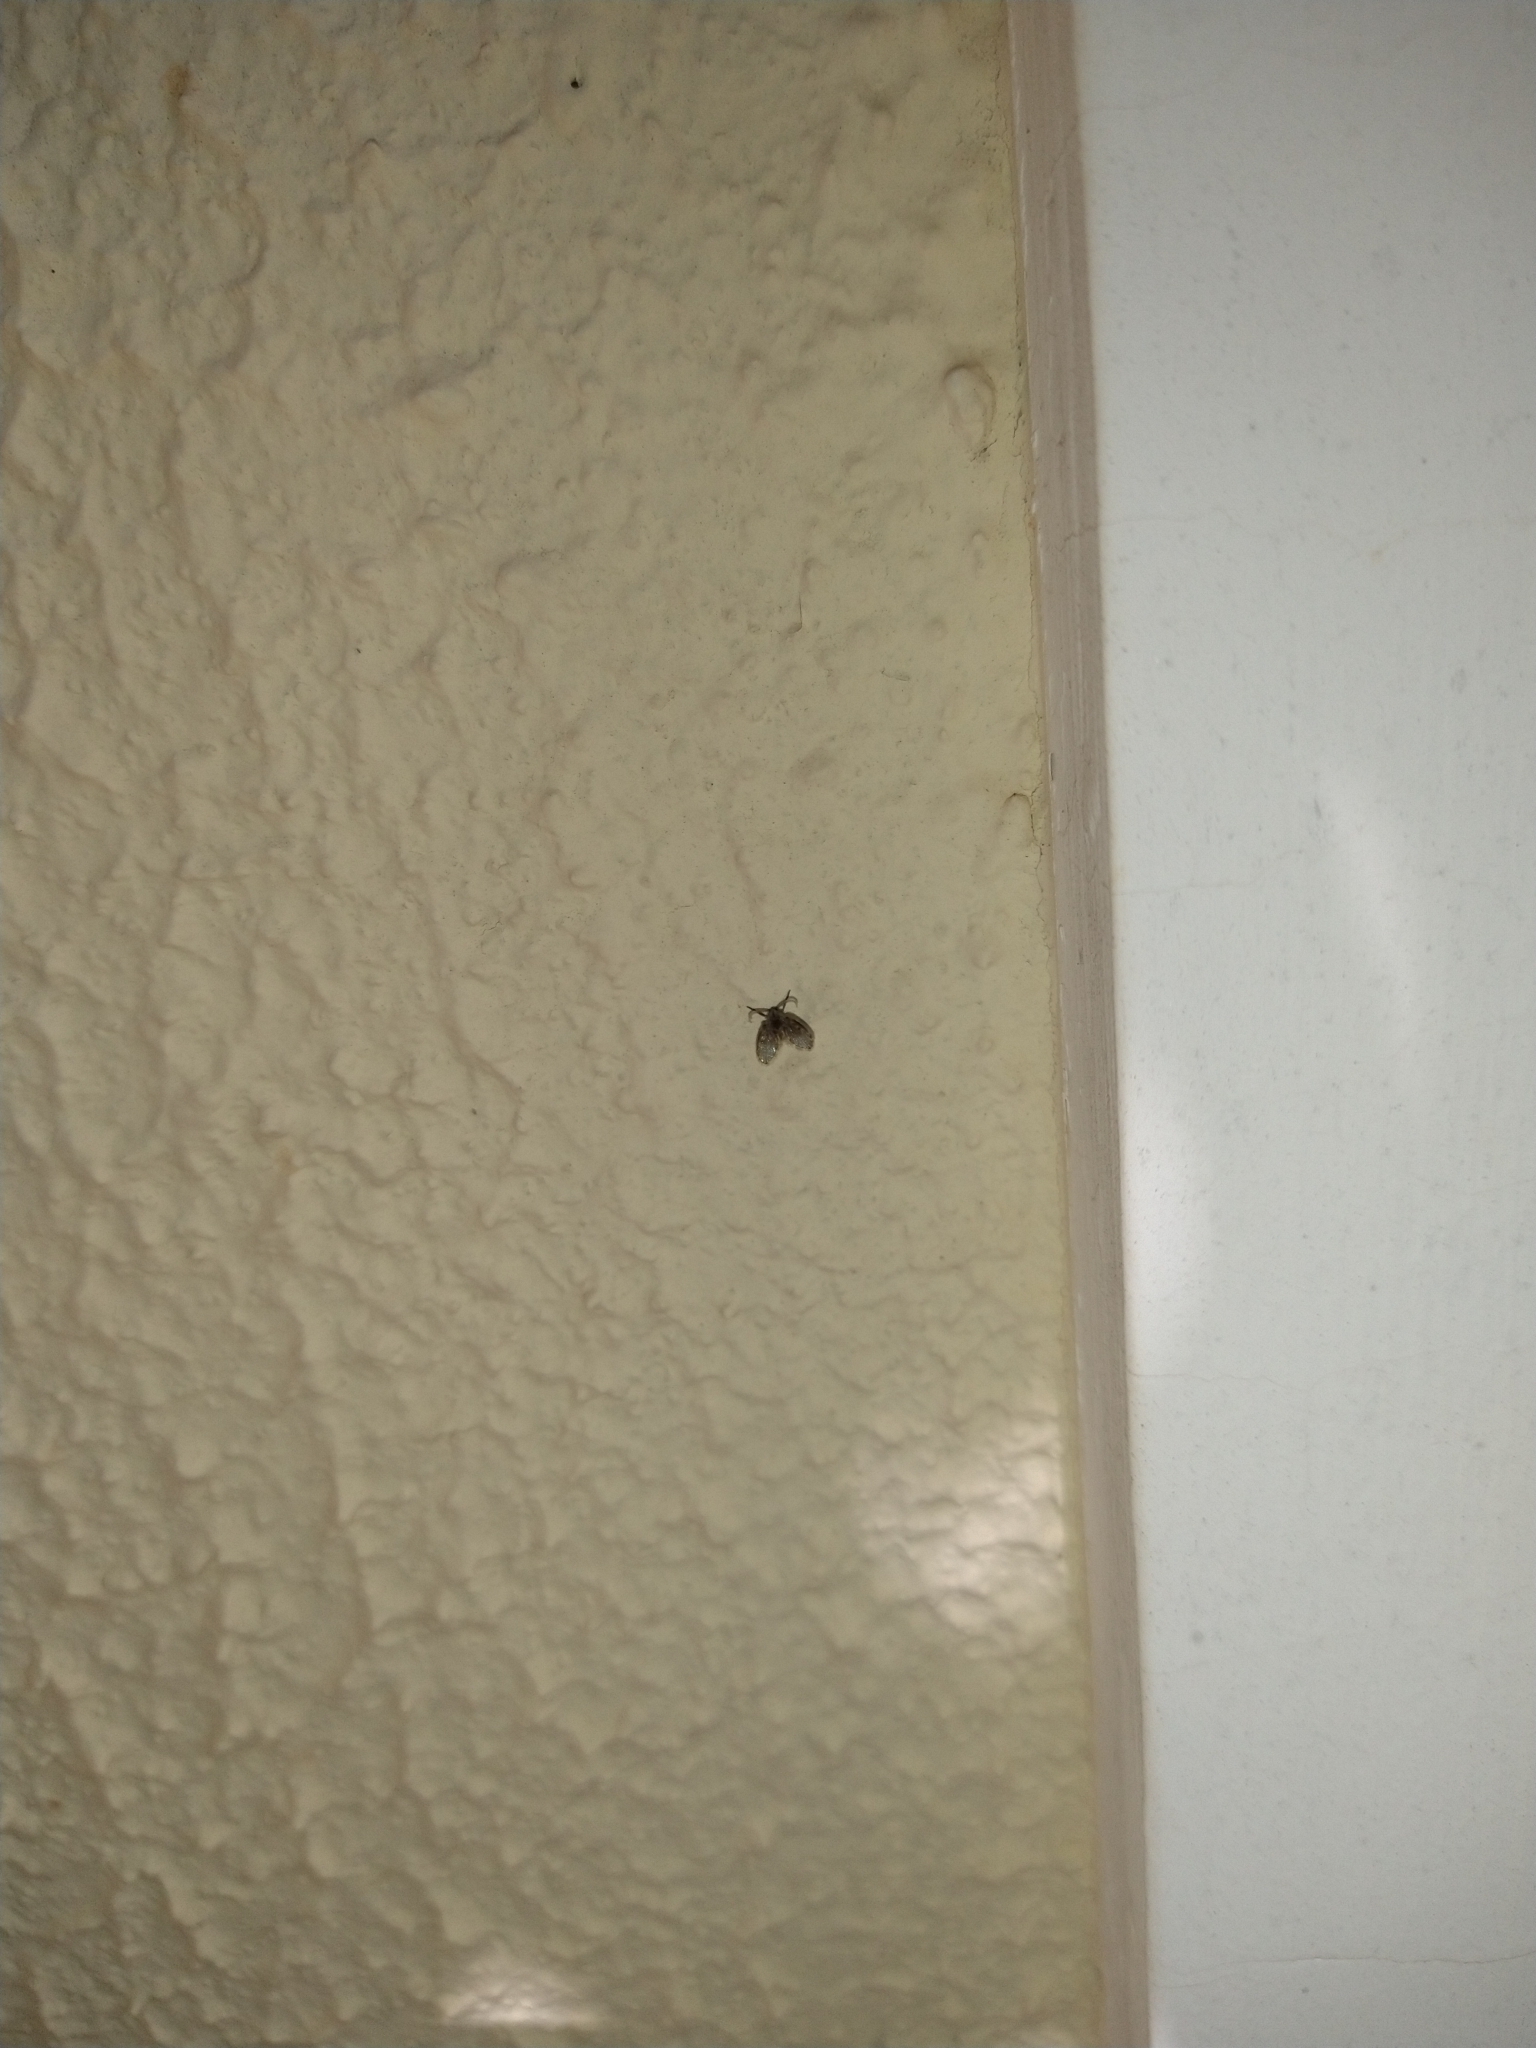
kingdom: Animalia
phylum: Arthropoda
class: Insecta
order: Diptera
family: Psychodidae
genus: Clogmia
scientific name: Clogmia albipunctatus
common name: White-spotted moth fly
